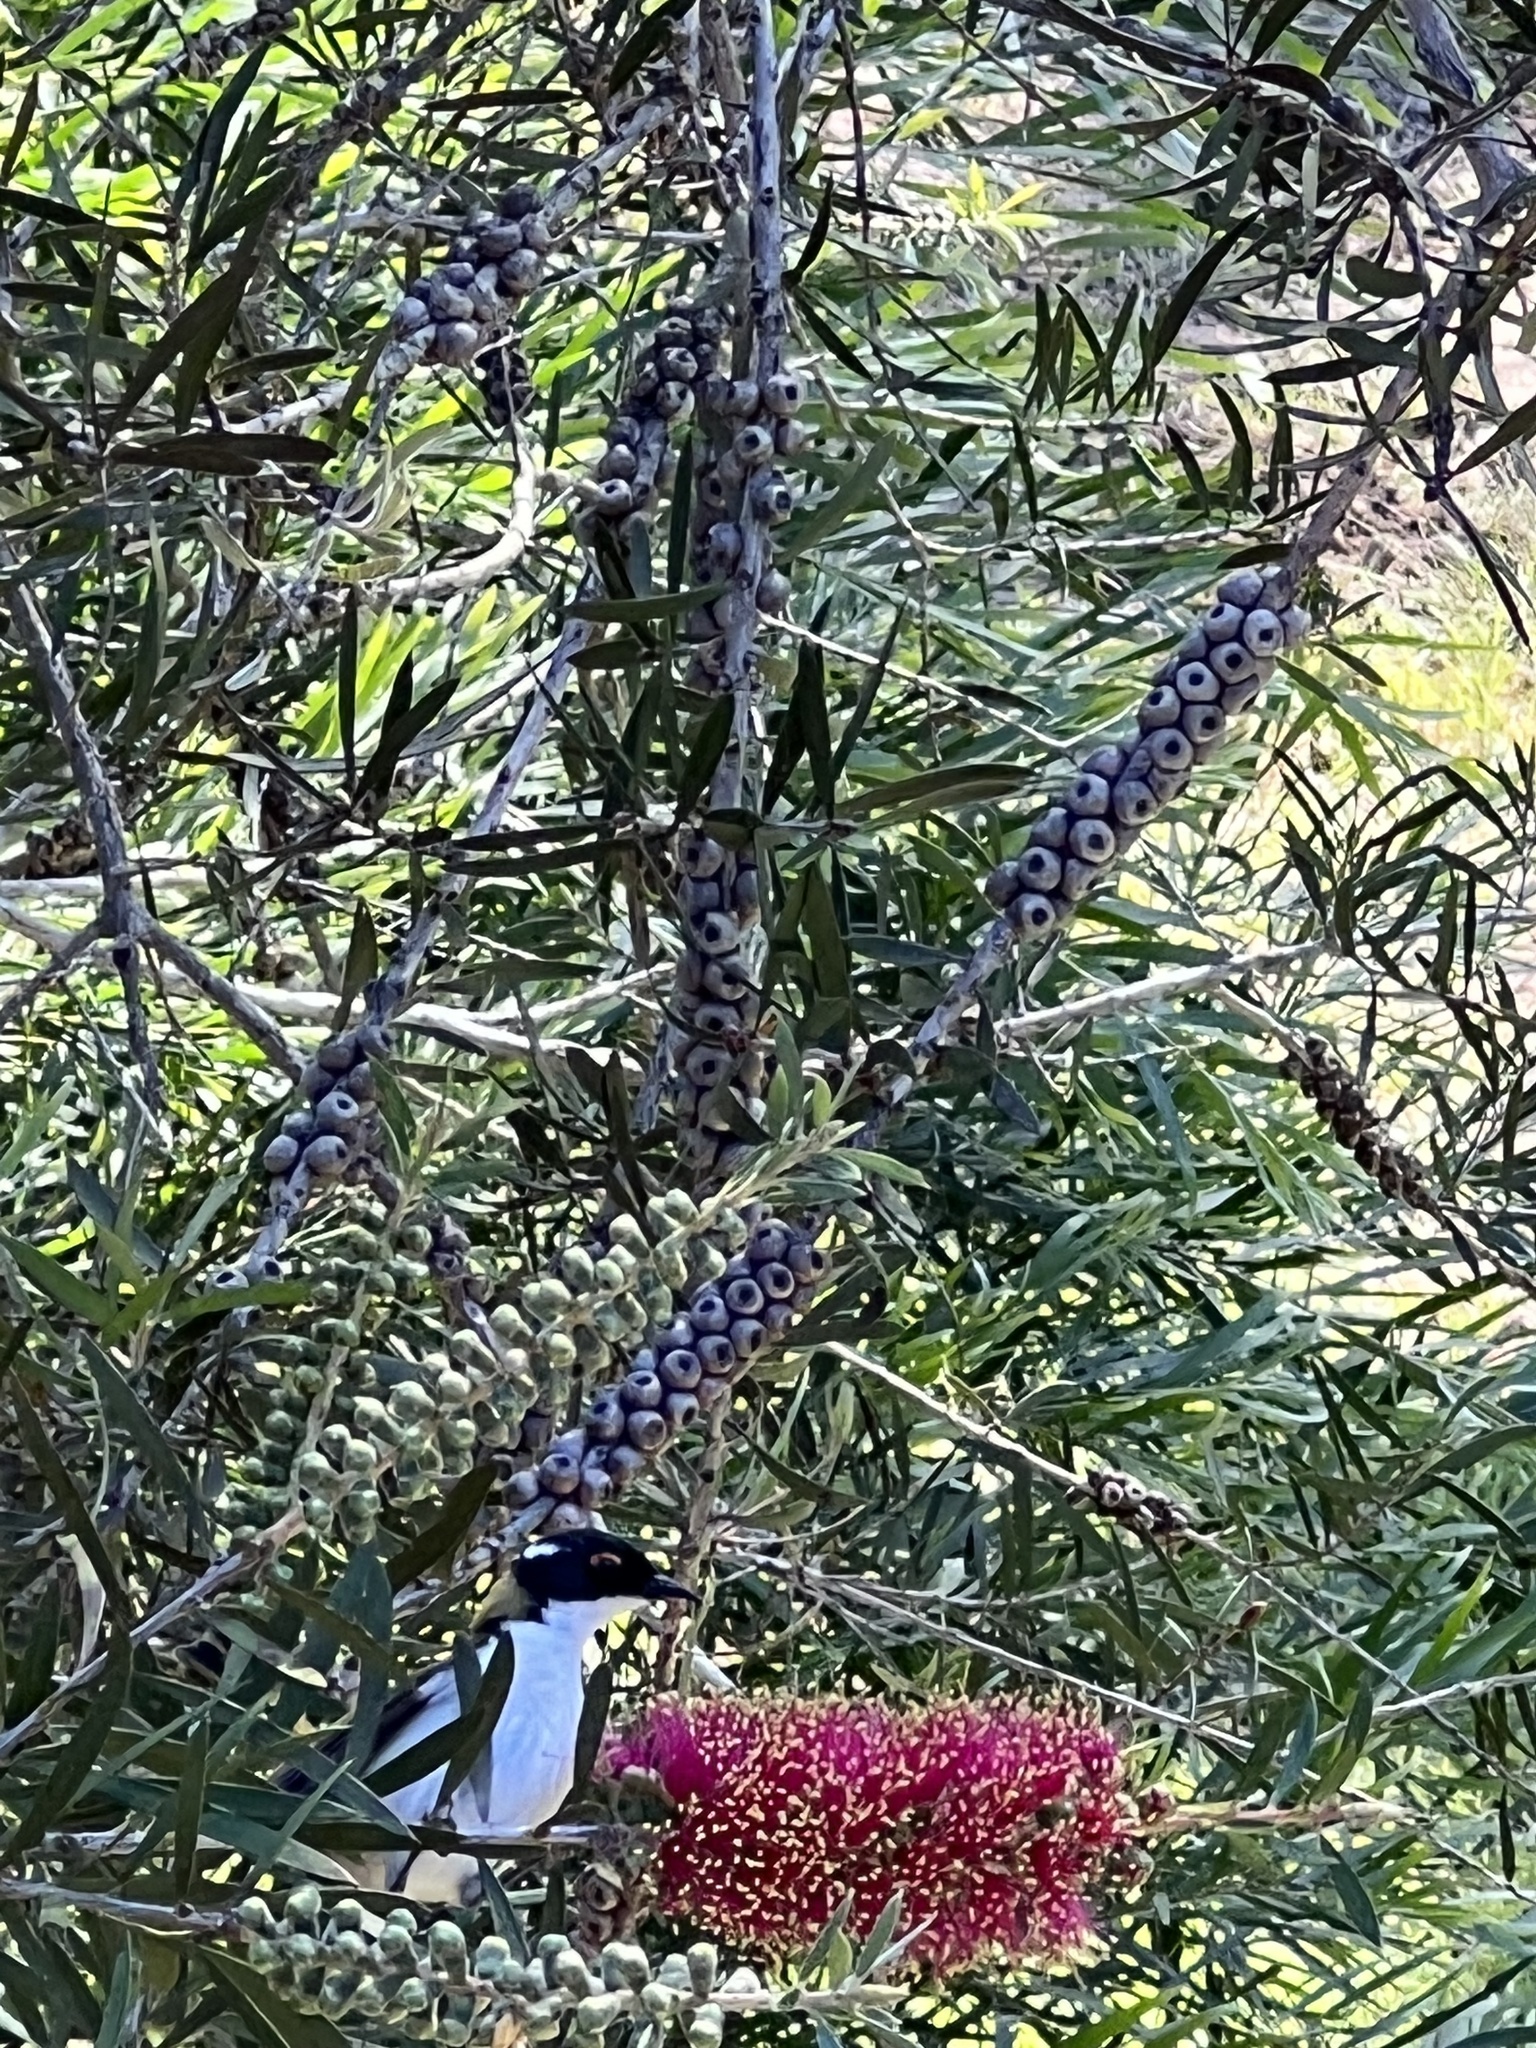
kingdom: Animalia
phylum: Chordata
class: Aves
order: Passeriformes
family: Meliphagidae
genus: Melithreptus
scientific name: Melithreptus lunatus
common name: White-naped honeyeater
